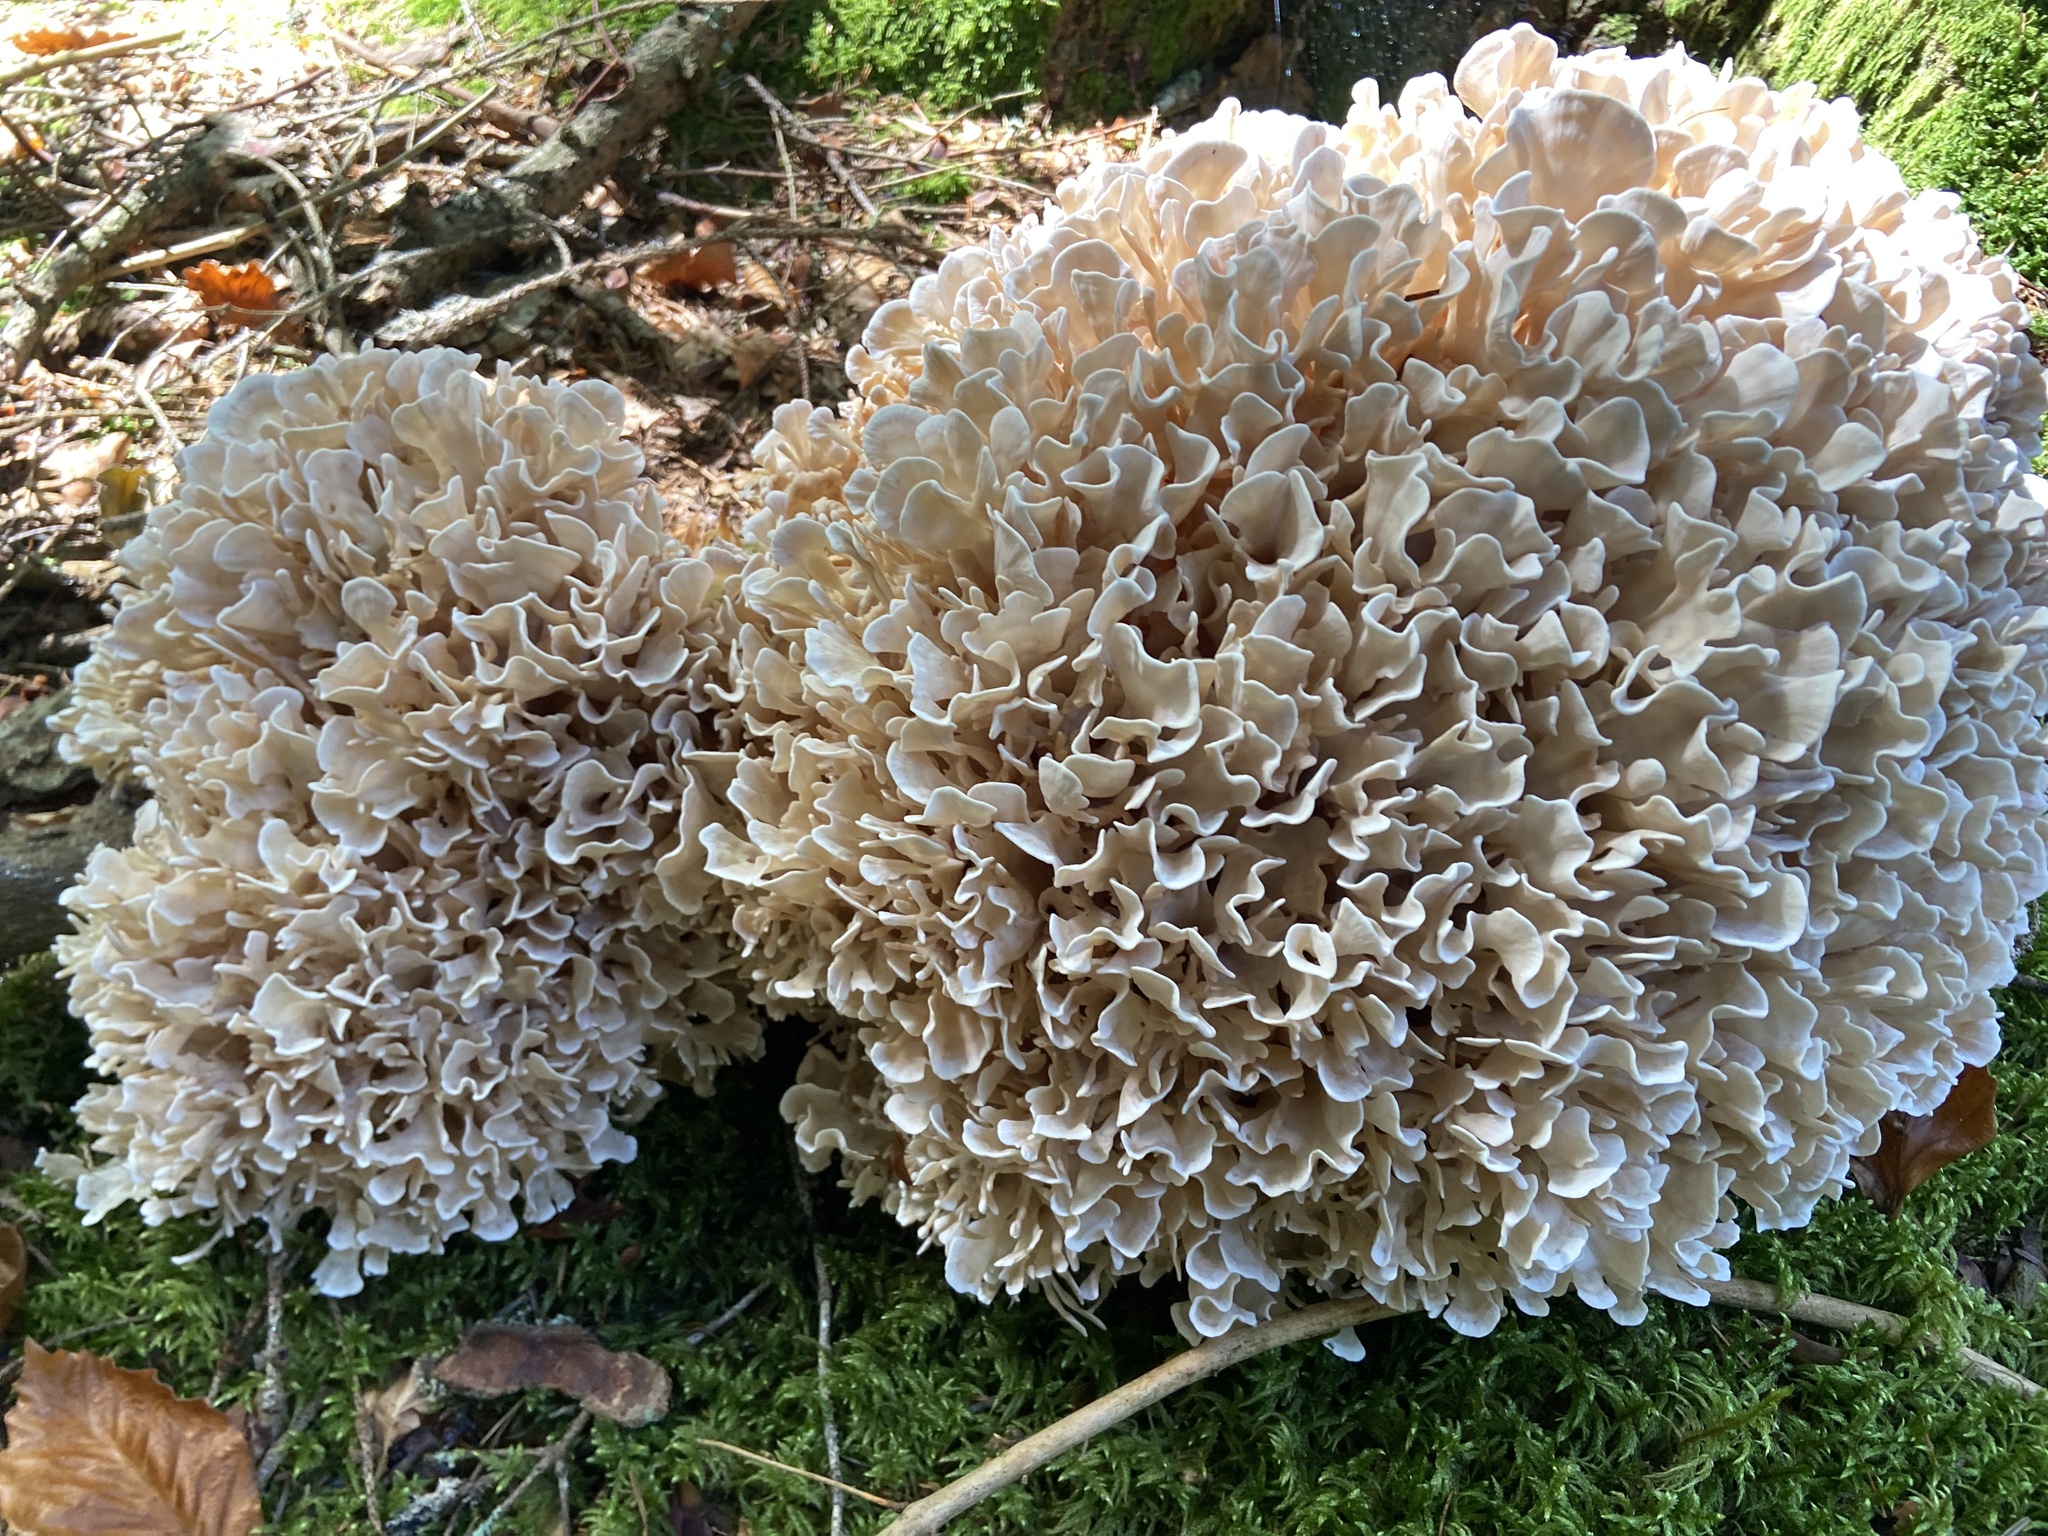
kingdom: Fungi
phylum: Basidiomycota
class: Agaricomycetes
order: Polyporales
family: Sparassidaceae
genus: Sparassis
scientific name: Sparassis brevipes
